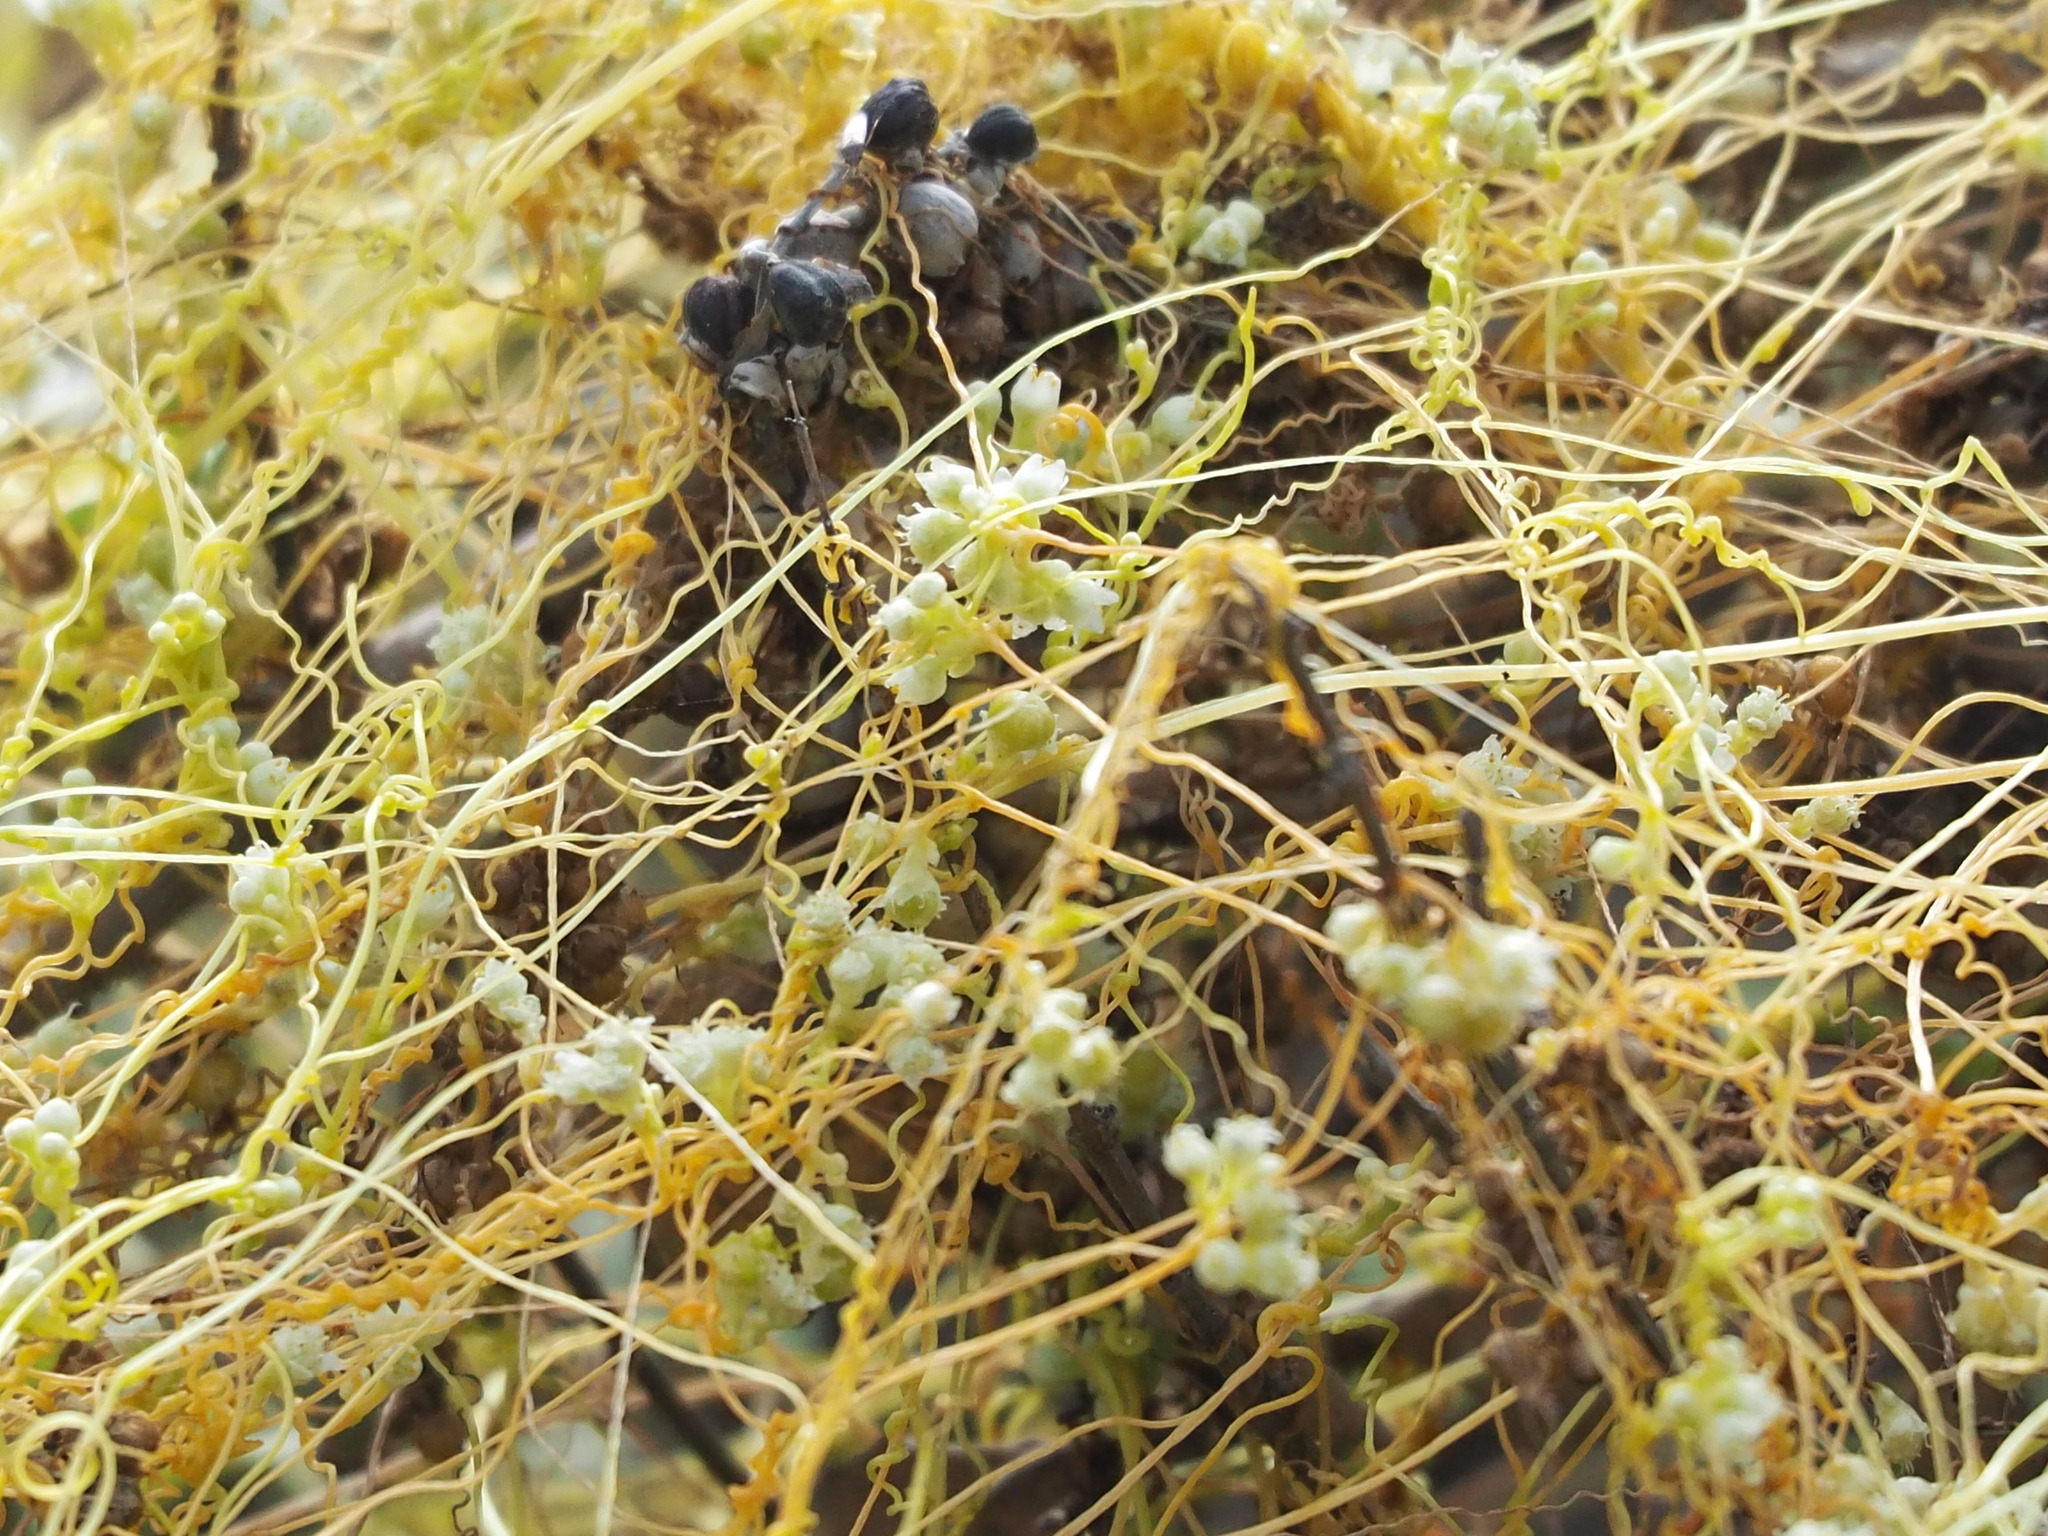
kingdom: Plantae
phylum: Tracheophyta
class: Magnoliopsida
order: Solanales
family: Convolvulaceae
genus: Cuscuta
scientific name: Cuscuta campestris
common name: Yellow dodder
